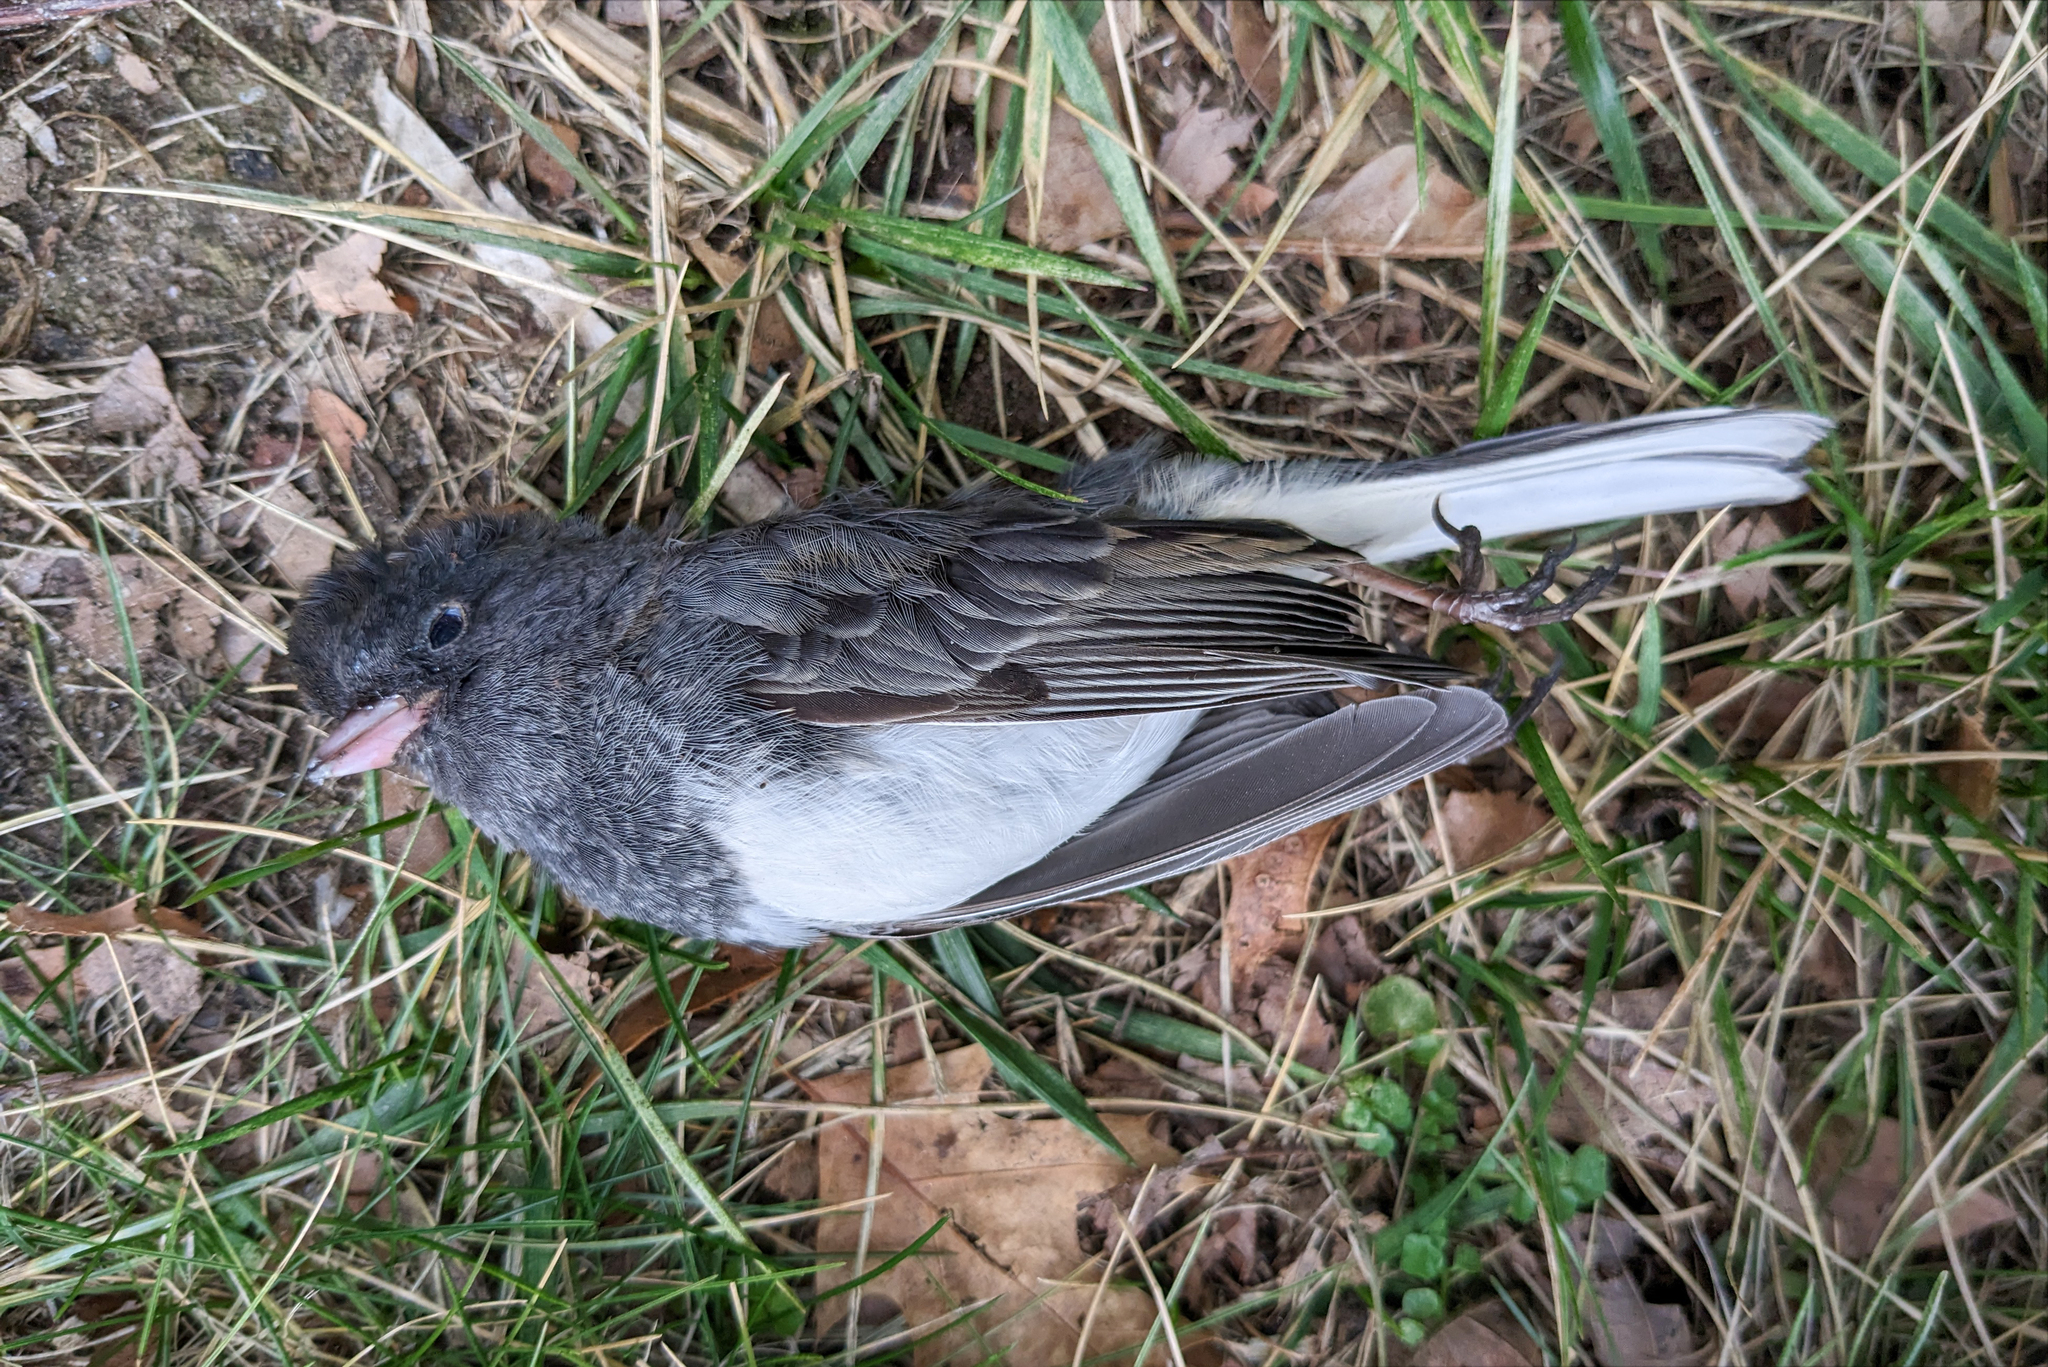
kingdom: Animalia
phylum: Chordata
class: Aves
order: Passeriformes
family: Passerellidae
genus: Junco
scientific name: Junco hyemalis
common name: Dark-eyed junco
